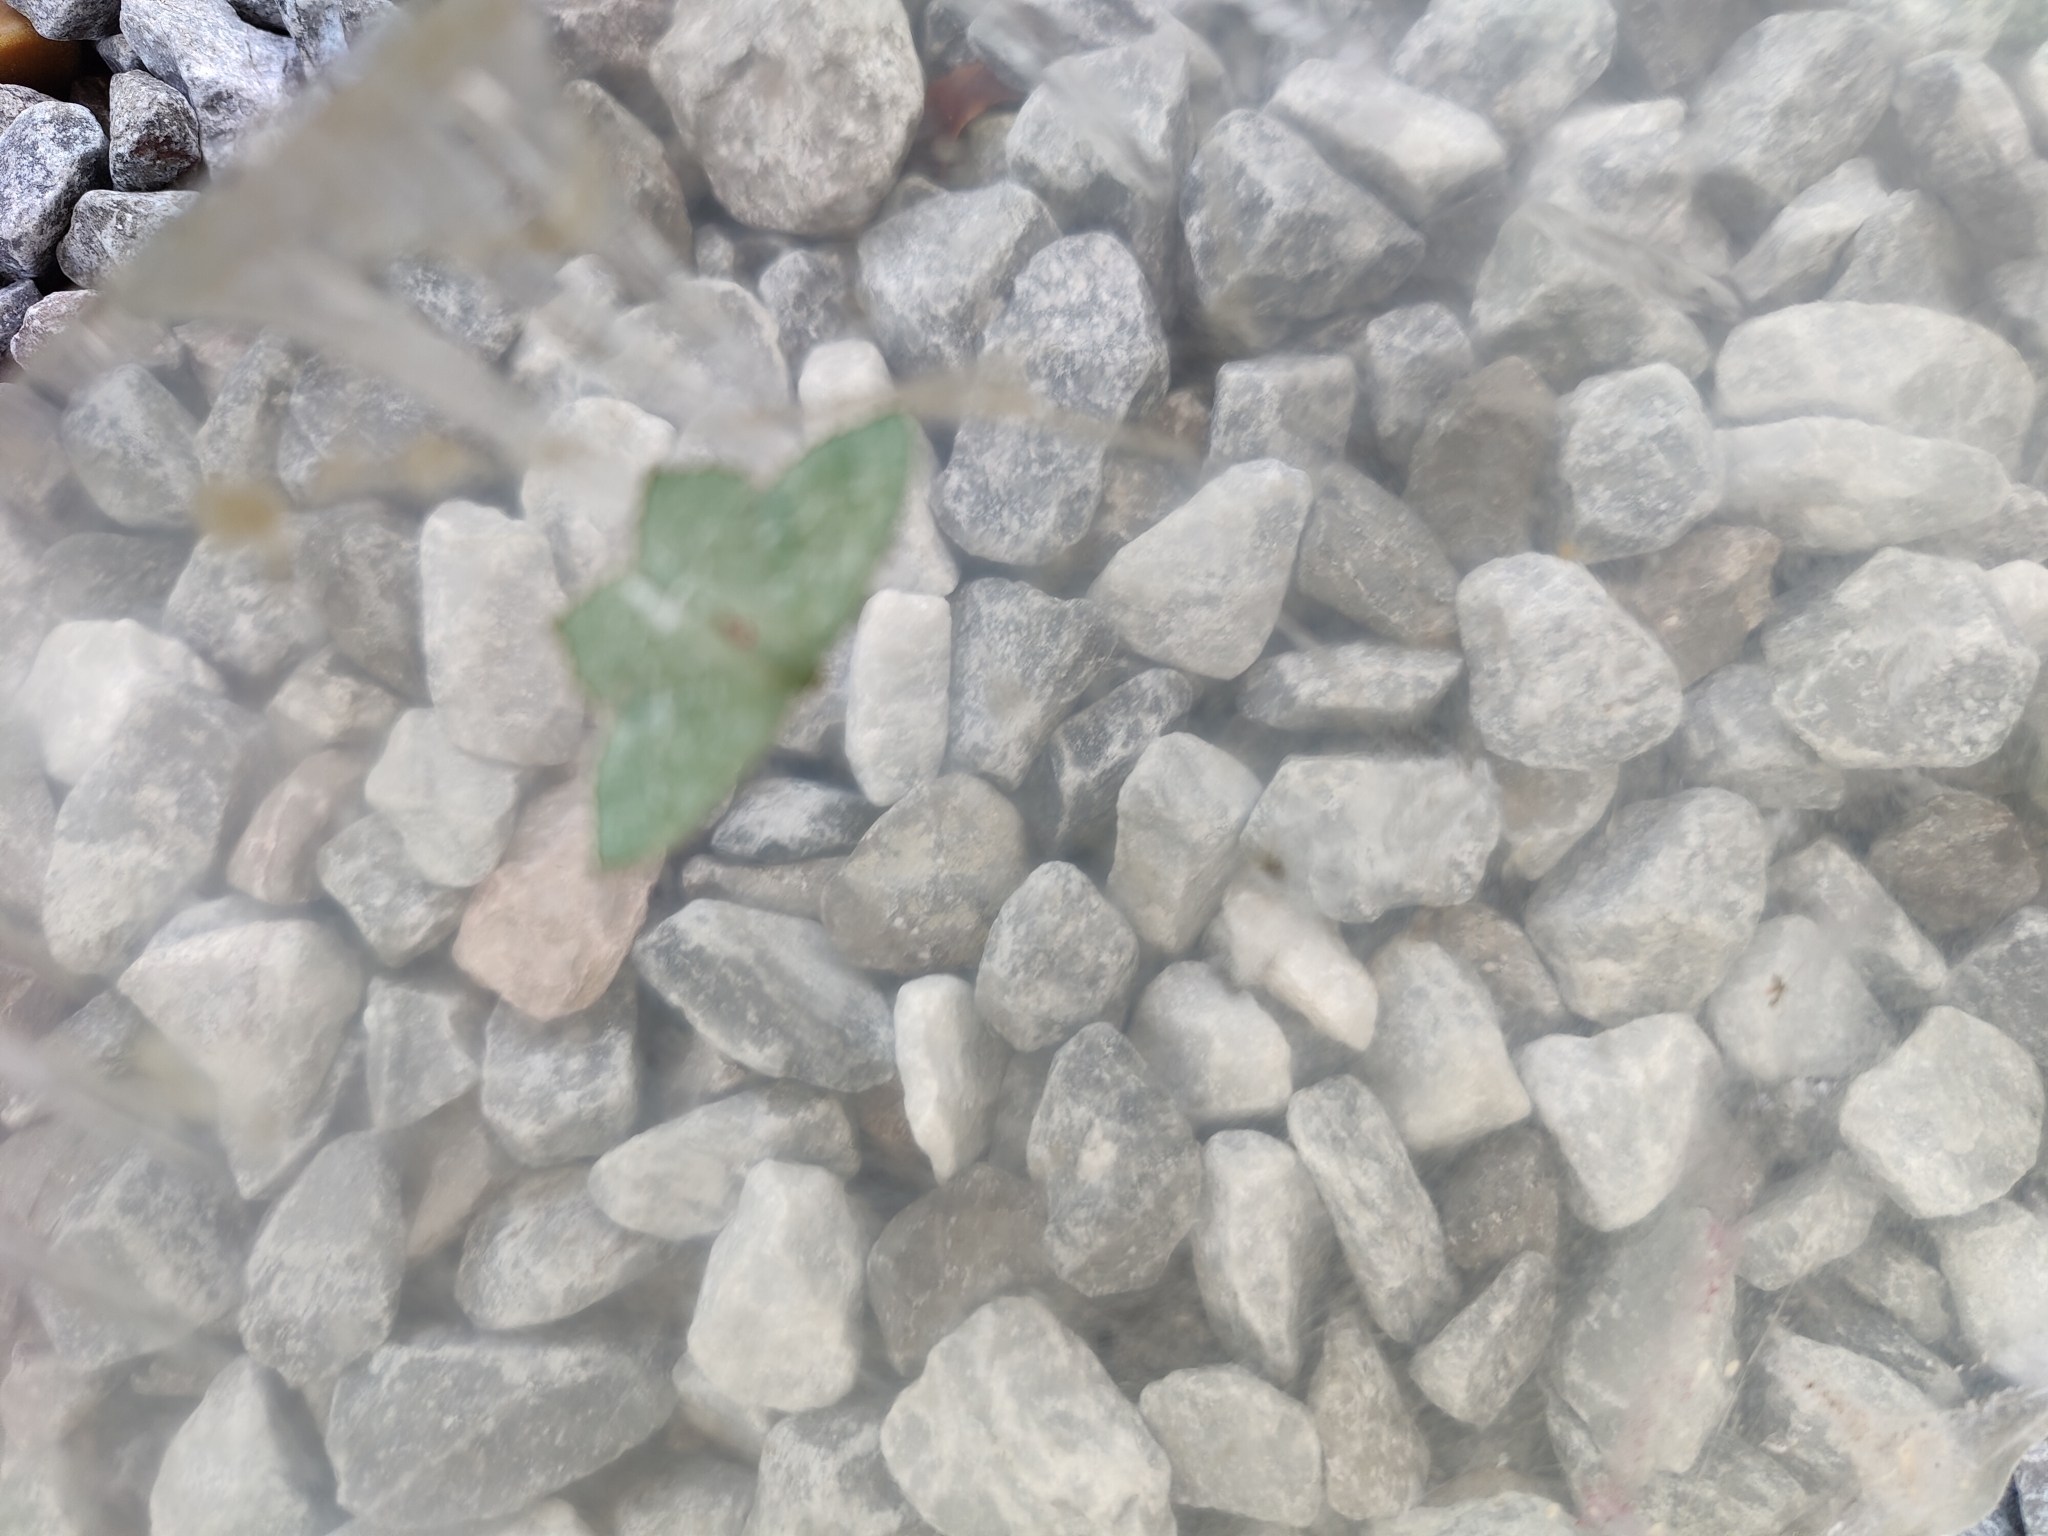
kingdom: Animalia
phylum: Arthropoda
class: Insecta
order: Lepidoptera
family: Geometridae
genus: Hemithea
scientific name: Hemithea aestivaria
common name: Common emerald
